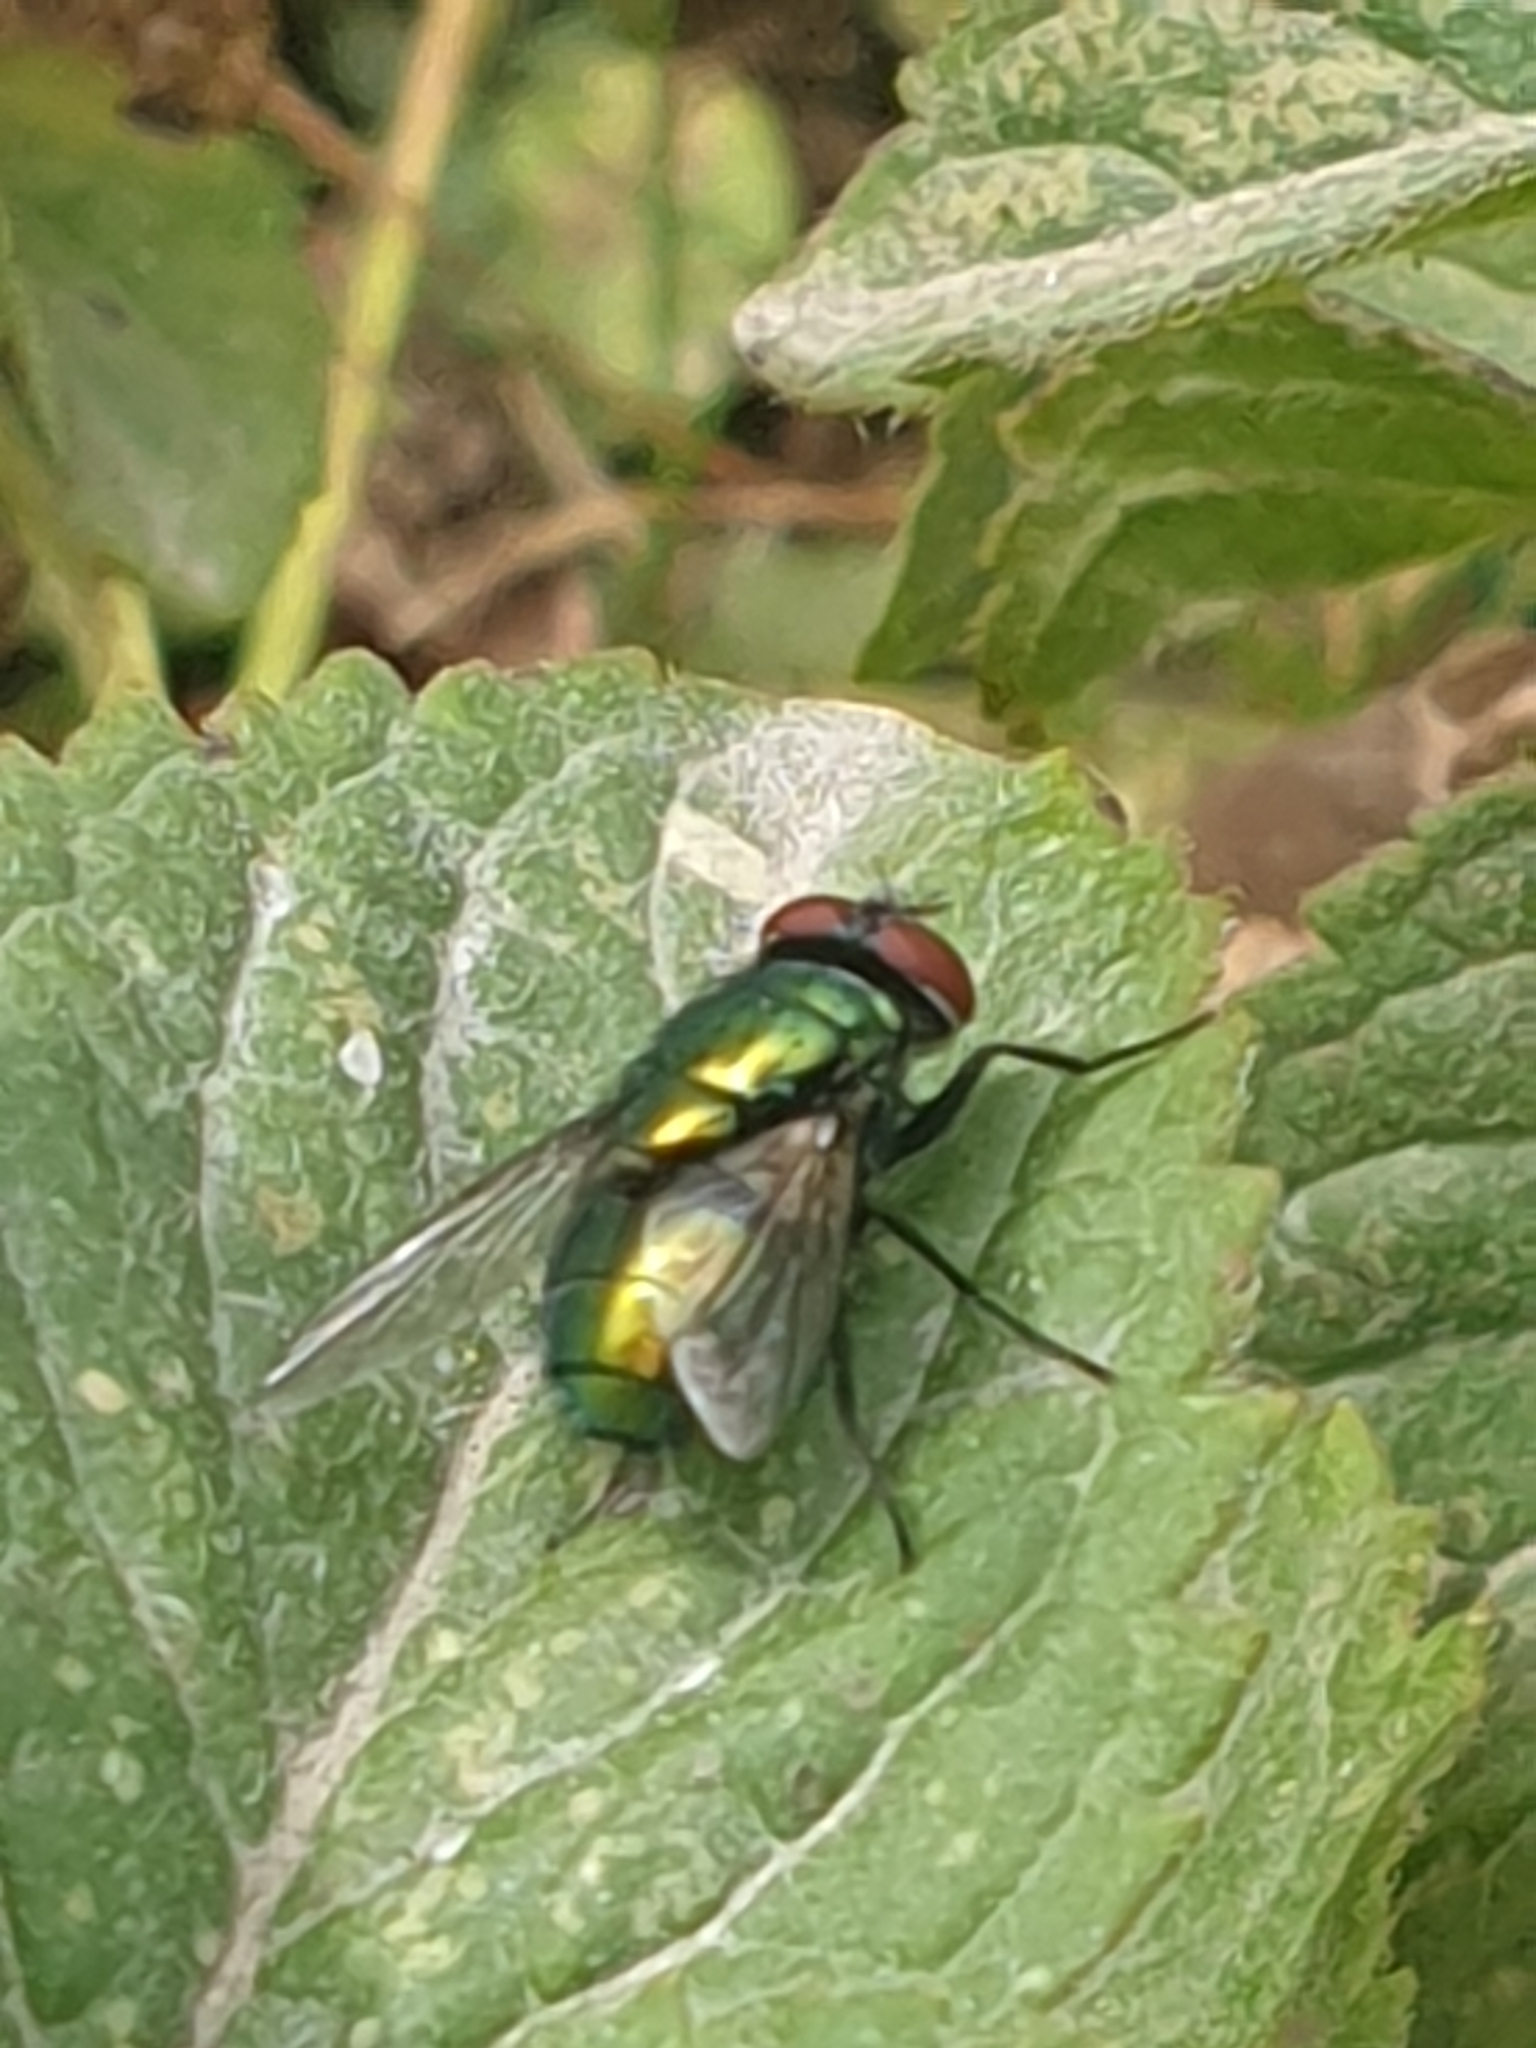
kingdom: Animalia
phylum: Arthropoda
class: Insecta
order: Diptera
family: Calliphoridae
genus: Lucilia
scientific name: Lucilia
